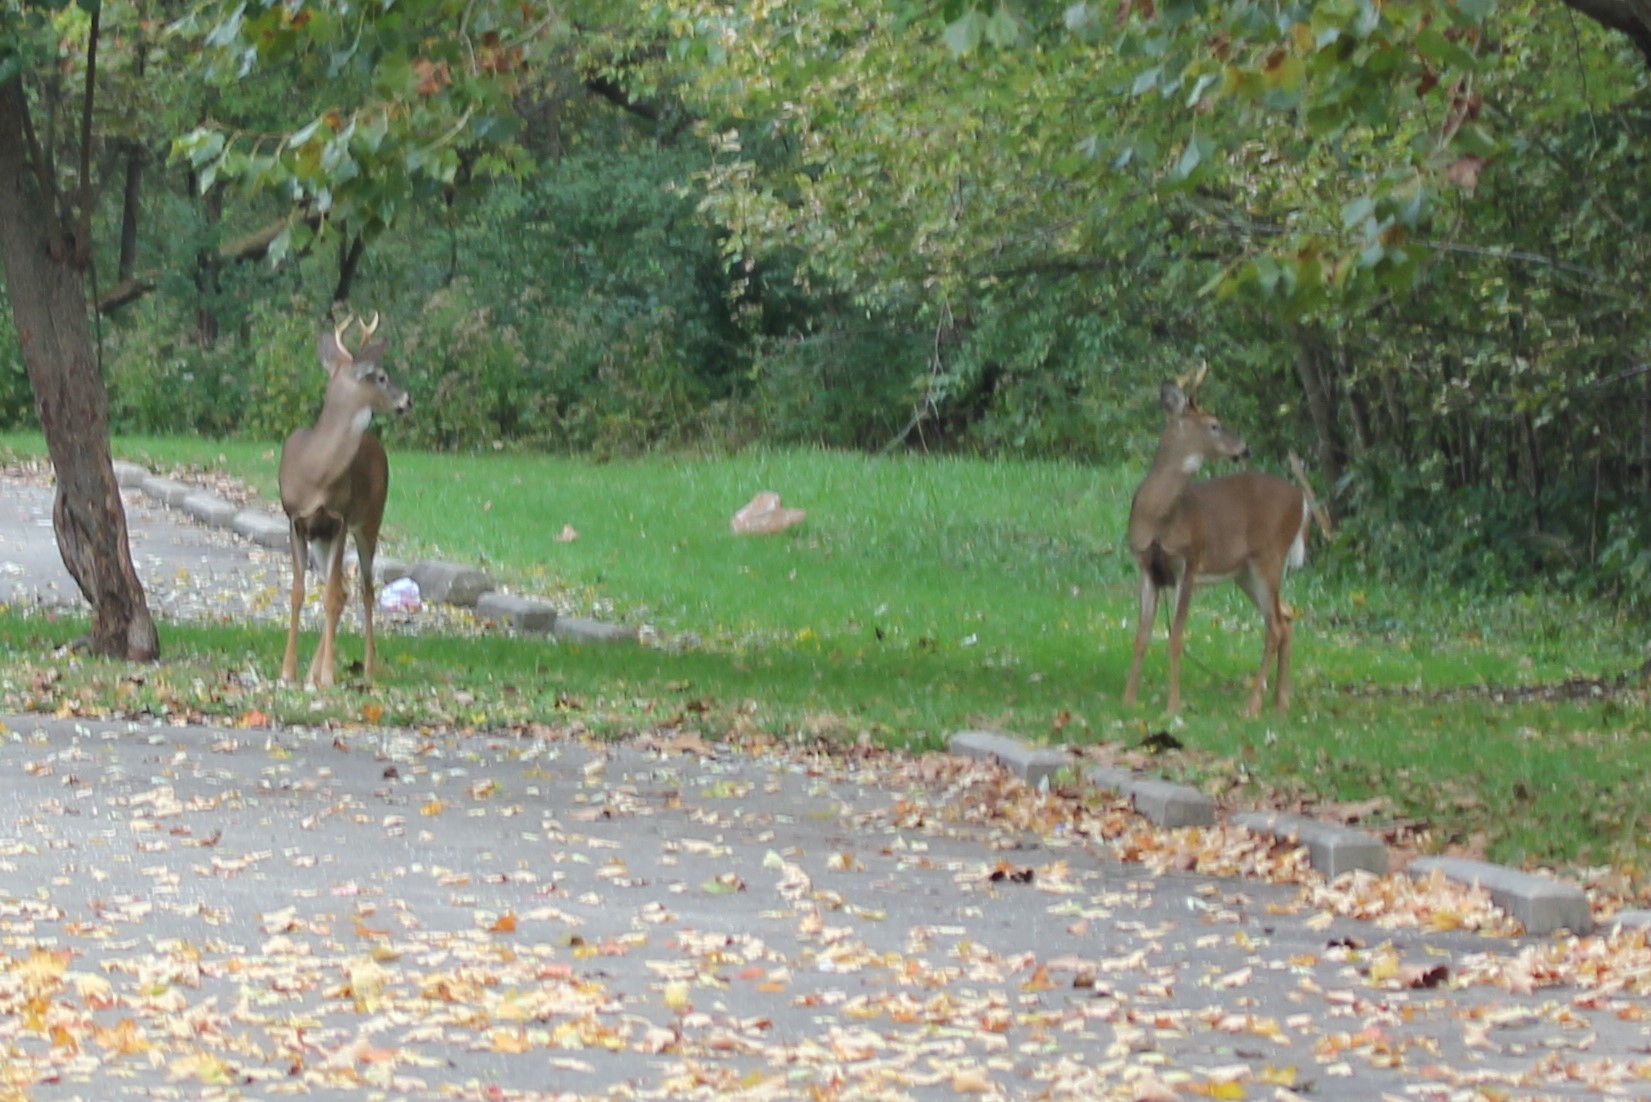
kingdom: Animalia
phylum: Chordata
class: Mammalia
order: Artiodactyla
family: Cervidae
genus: Odocoileus
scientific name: Odocoileus virginianus
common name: White-tailed deer
